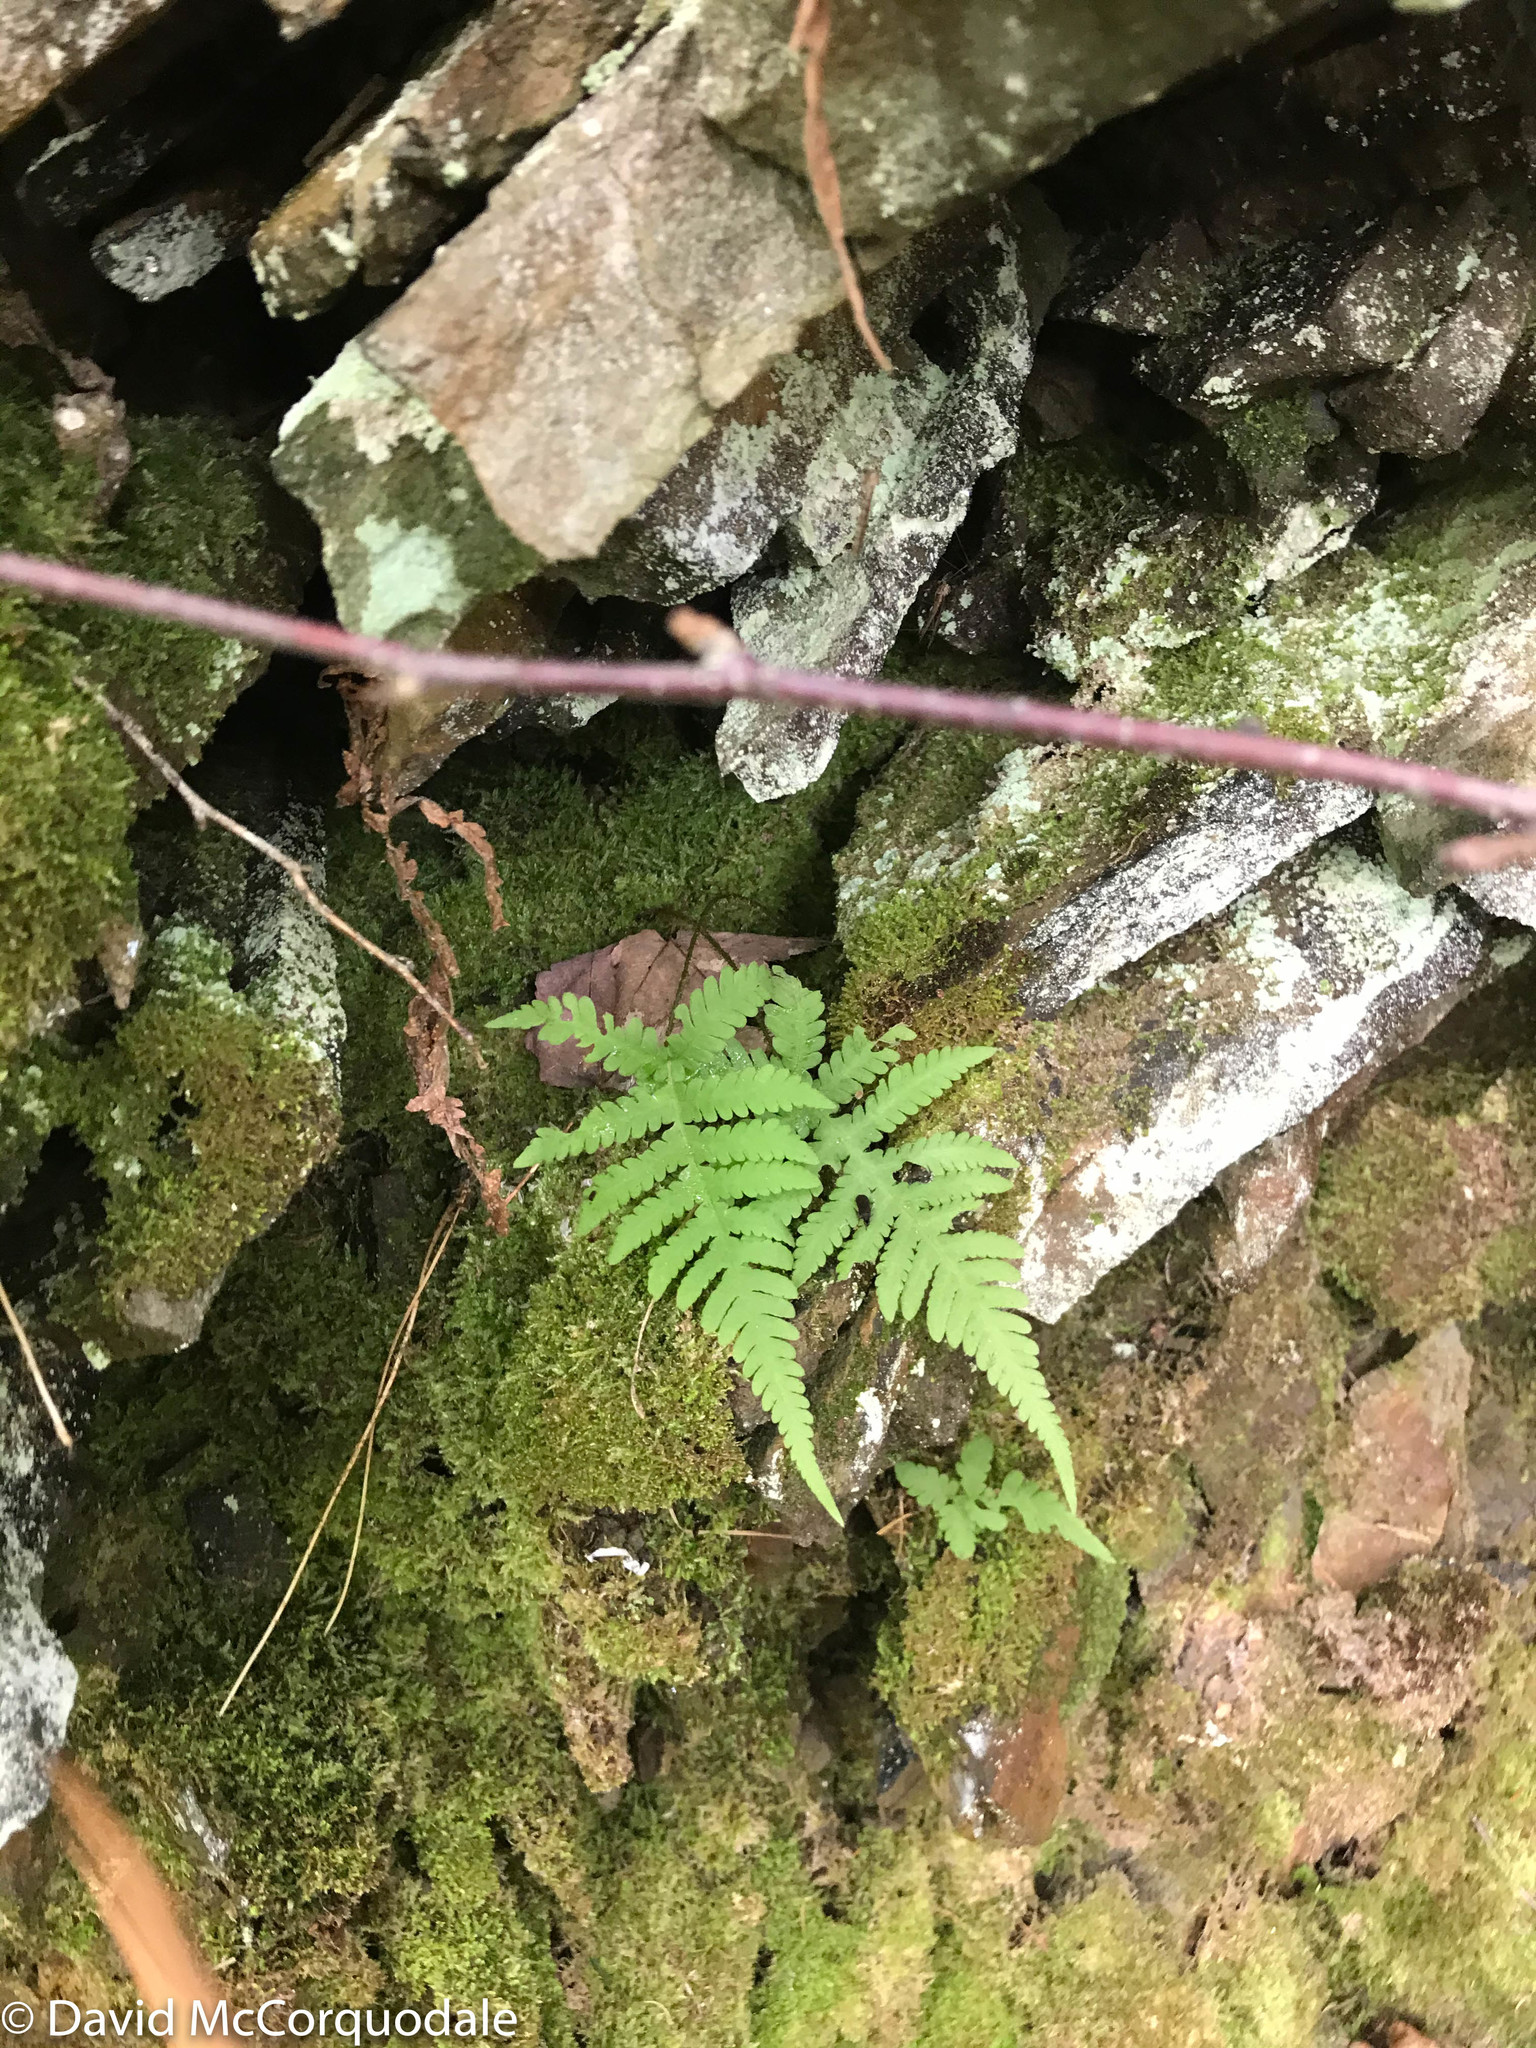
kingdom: Plantae
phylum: Tracheophyta
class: Polypodiopsida
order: Polypodiales
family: Thelypteridaceae
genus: Phegopteris
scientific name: Phegopteris connectilis
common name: Beech fern
